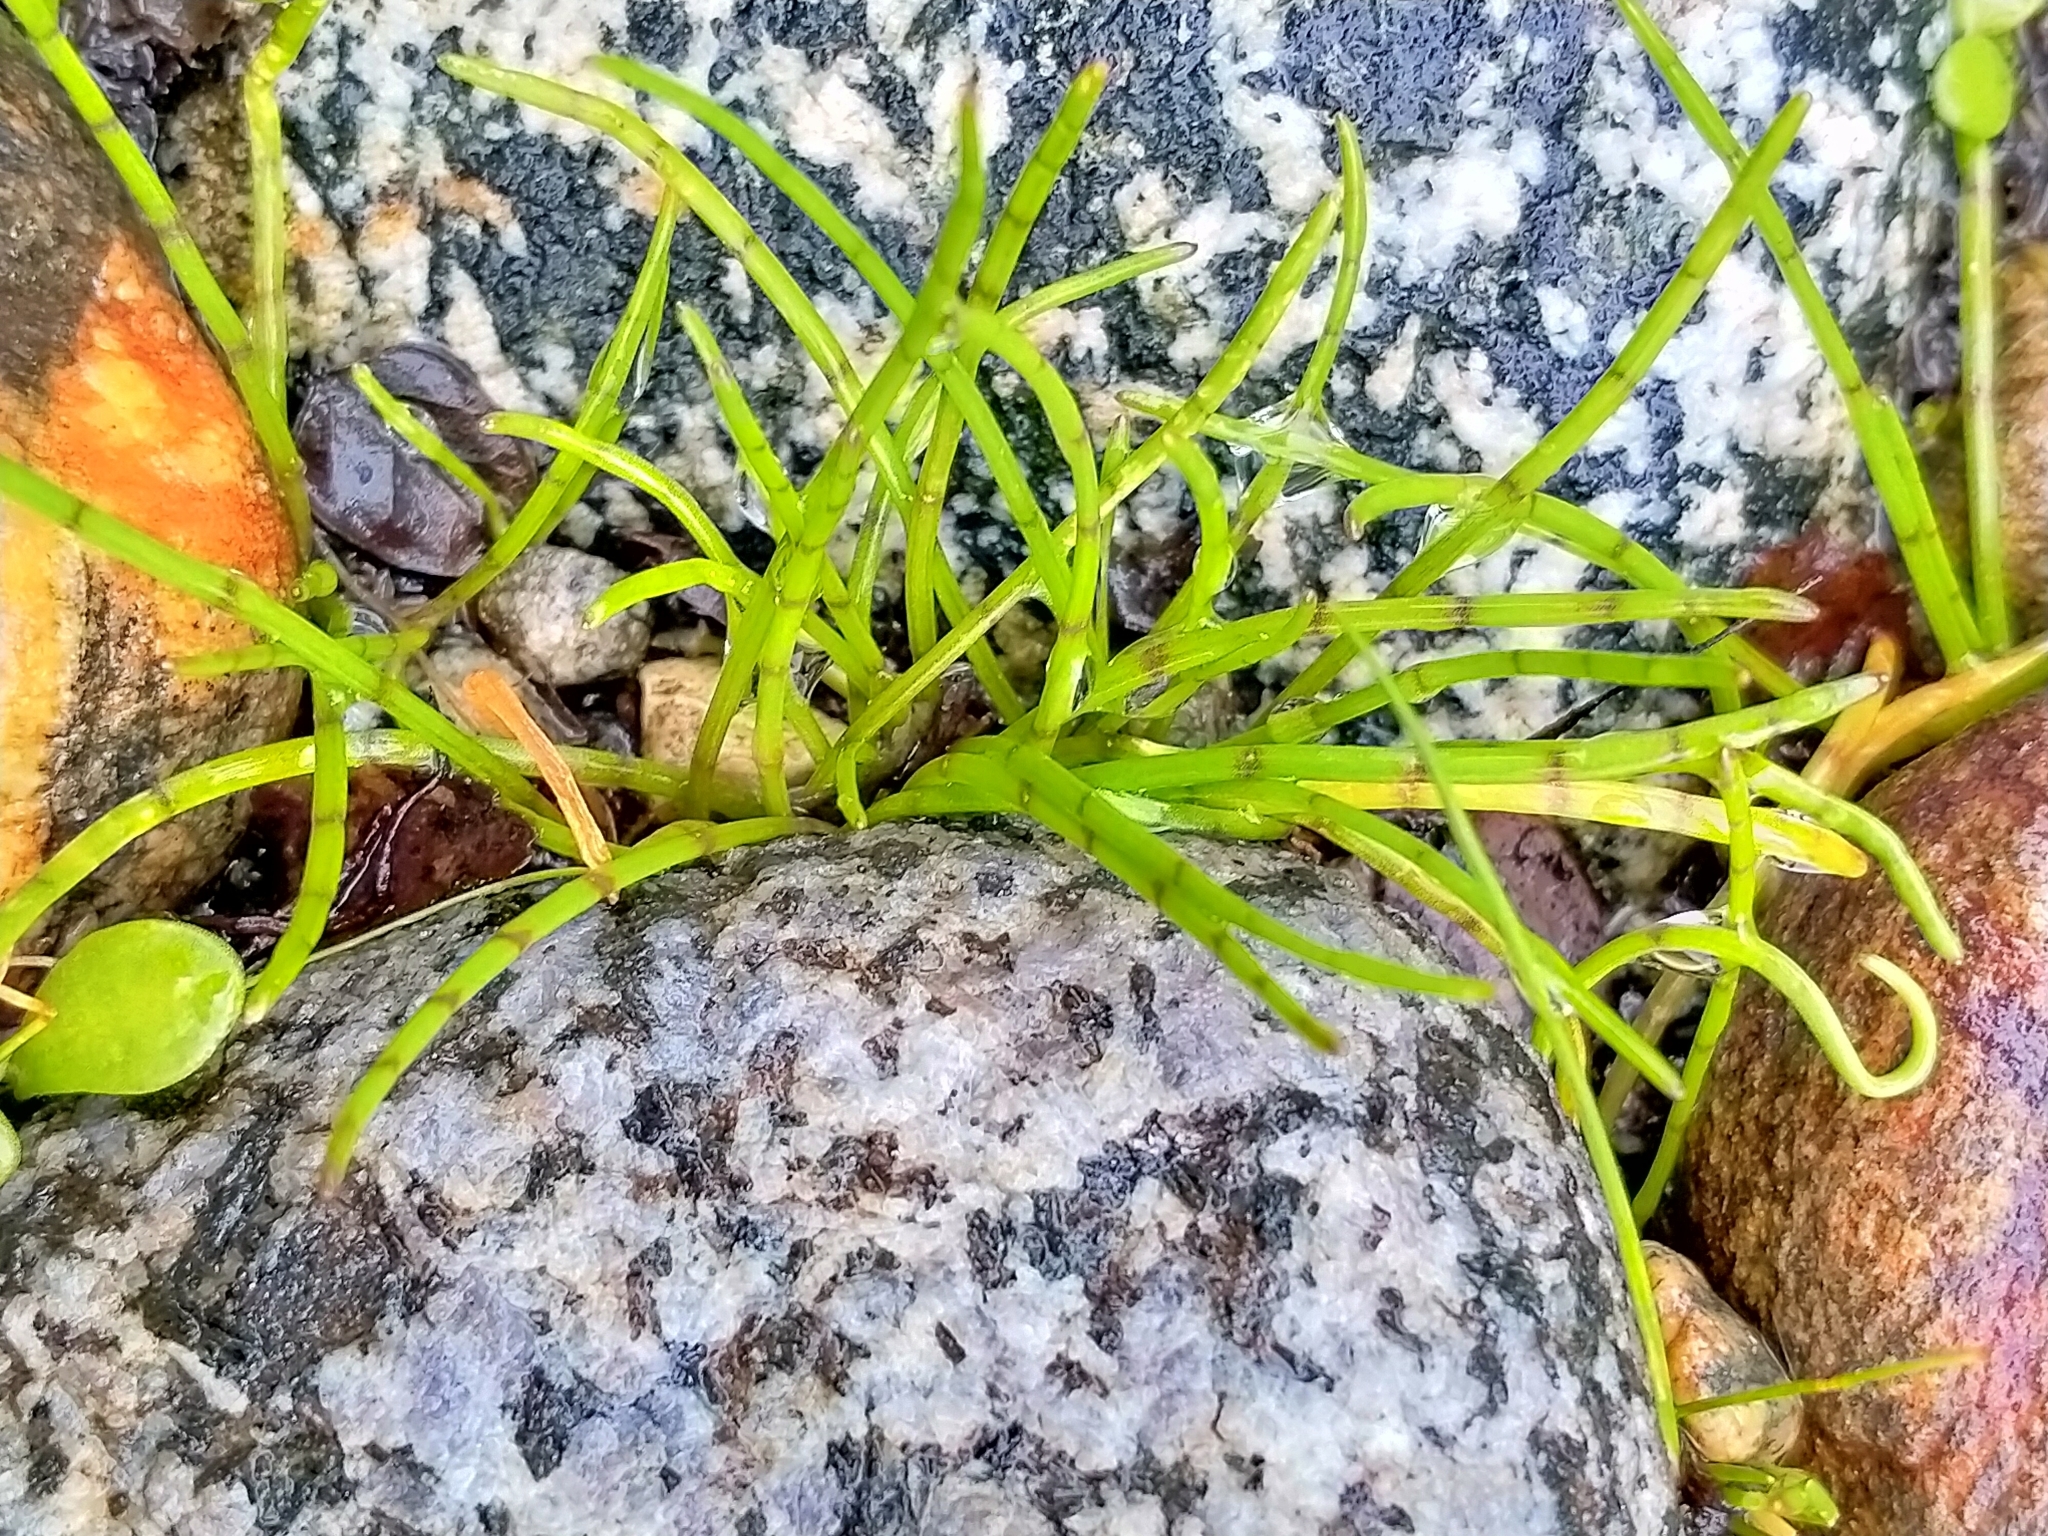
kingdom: Plantae
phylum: Tracheophyta
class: Magnoliopsida
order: Apiales
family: Apiaceae
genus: Lilaeopsis
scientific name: Lilaeopsis novae-zelandiae
